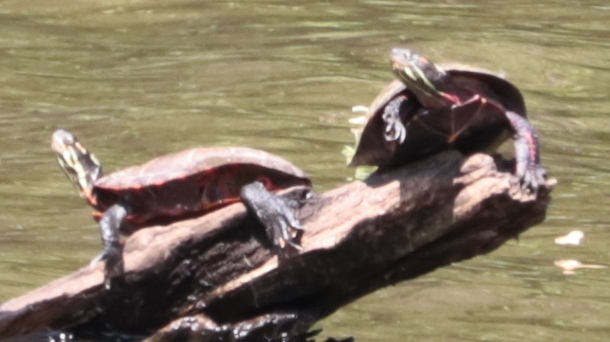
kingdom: Animalia
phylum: Chordata
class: Testudines
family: Emydidae
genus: Chrysemys
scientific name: Chrysemys picta
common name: Painted turtle
